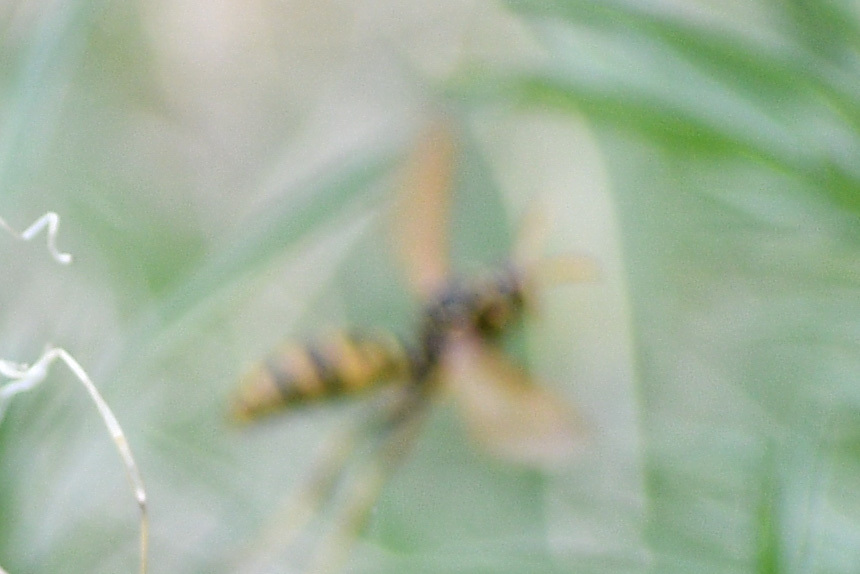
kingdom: Animalia
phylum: Arthropoda
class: Insecta
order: Hymenoptera
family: Eumenidae
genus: Polistes
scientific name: Polistes aurifer
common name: Paper wasp
